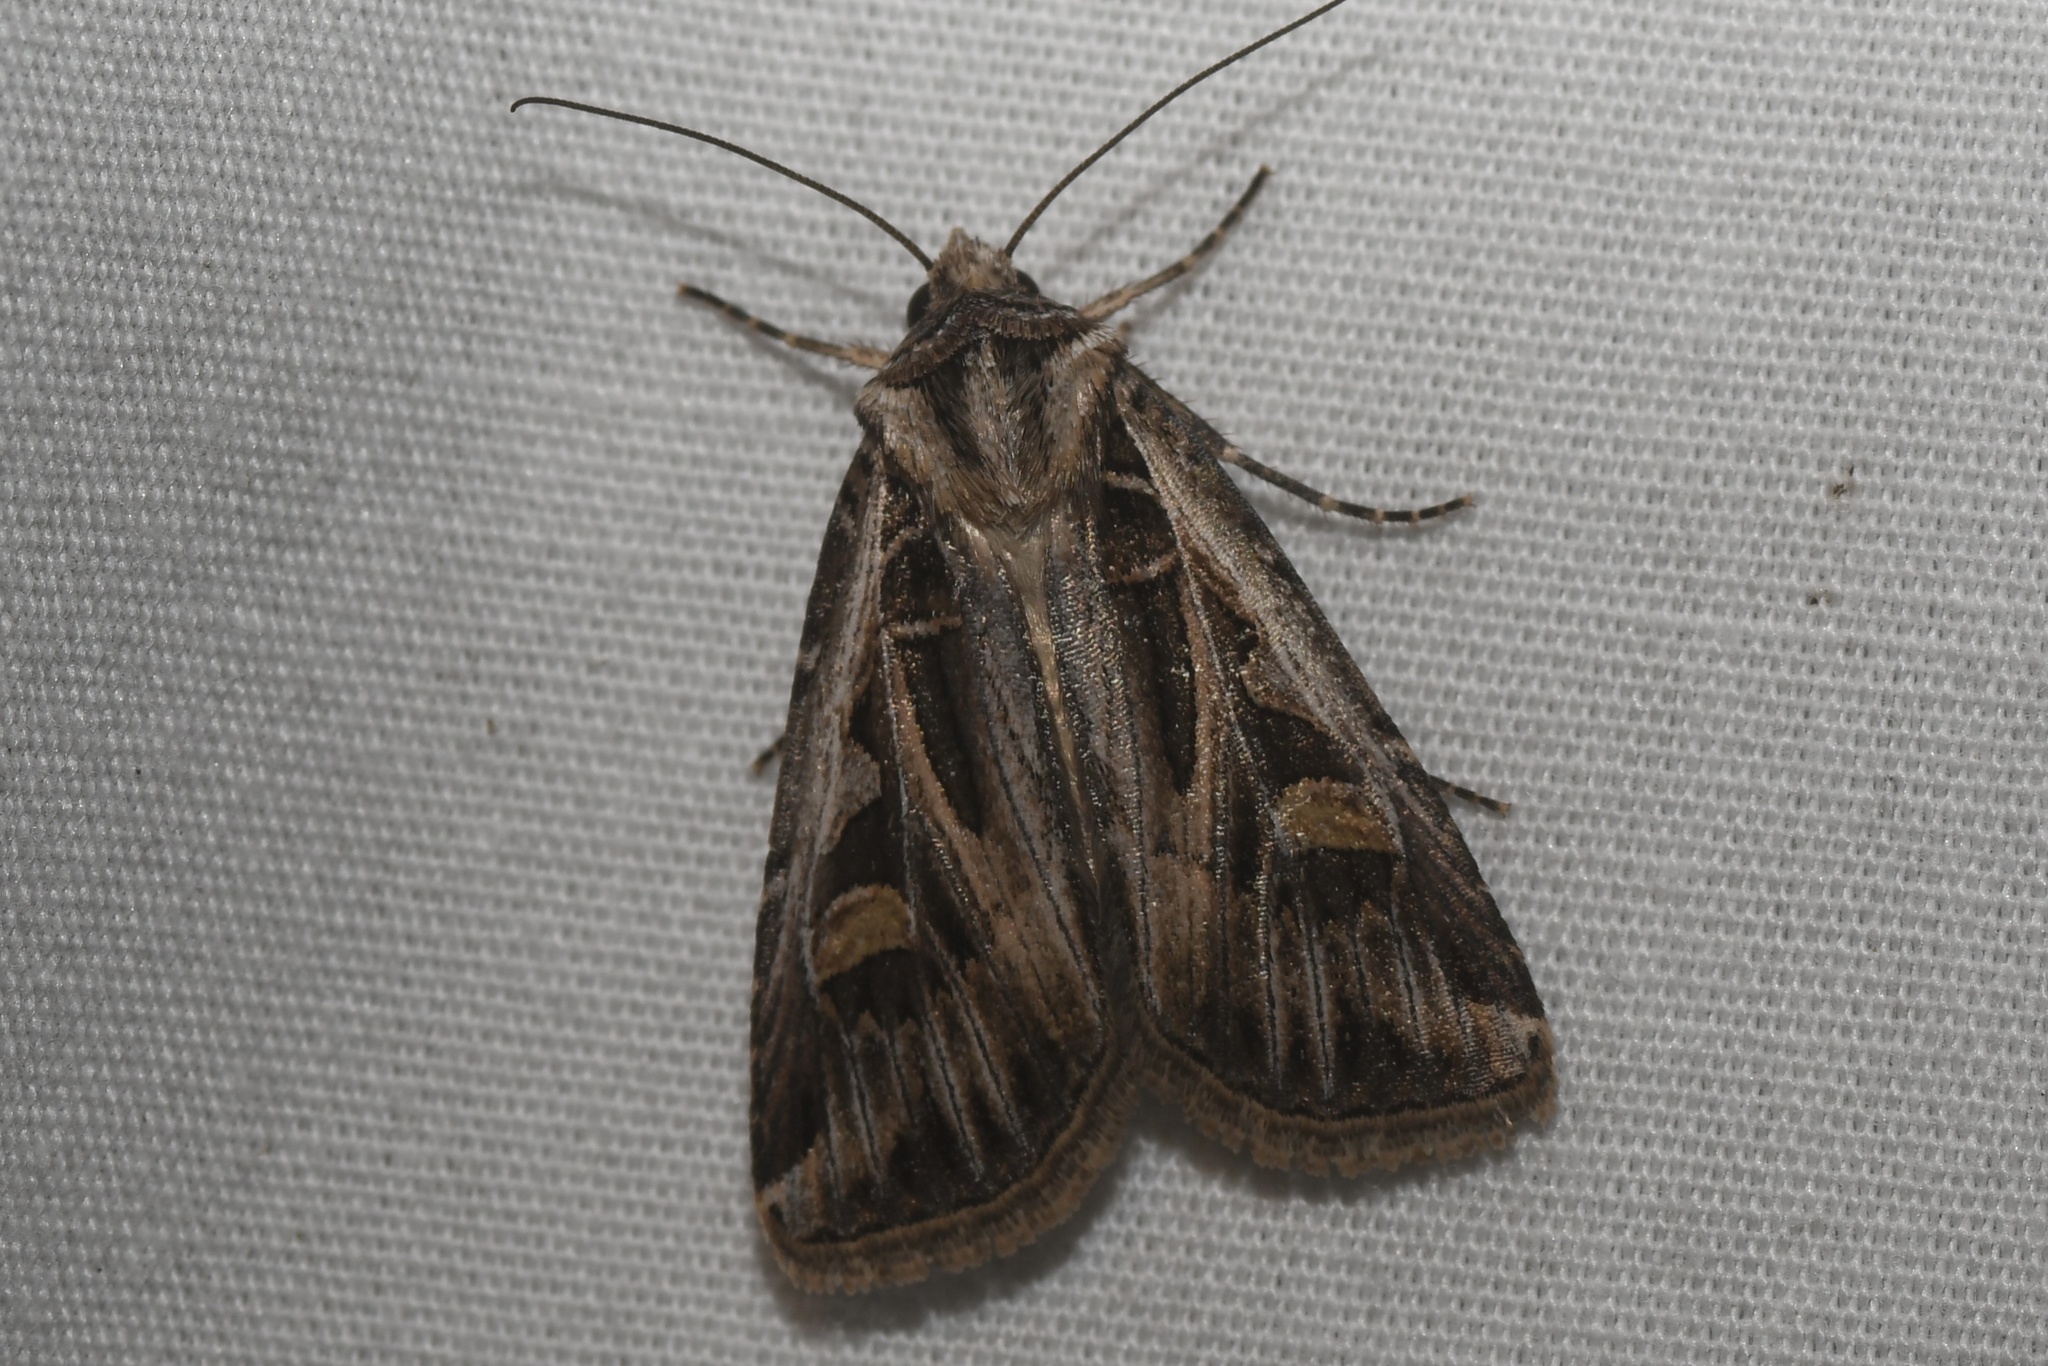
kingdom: Animalia
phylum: Arthropoda
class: Insecta
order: Lepidoptera
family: Noctuidae
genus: Feltia
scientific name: Feltia jaculifera
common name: Dingy cutworm moth
